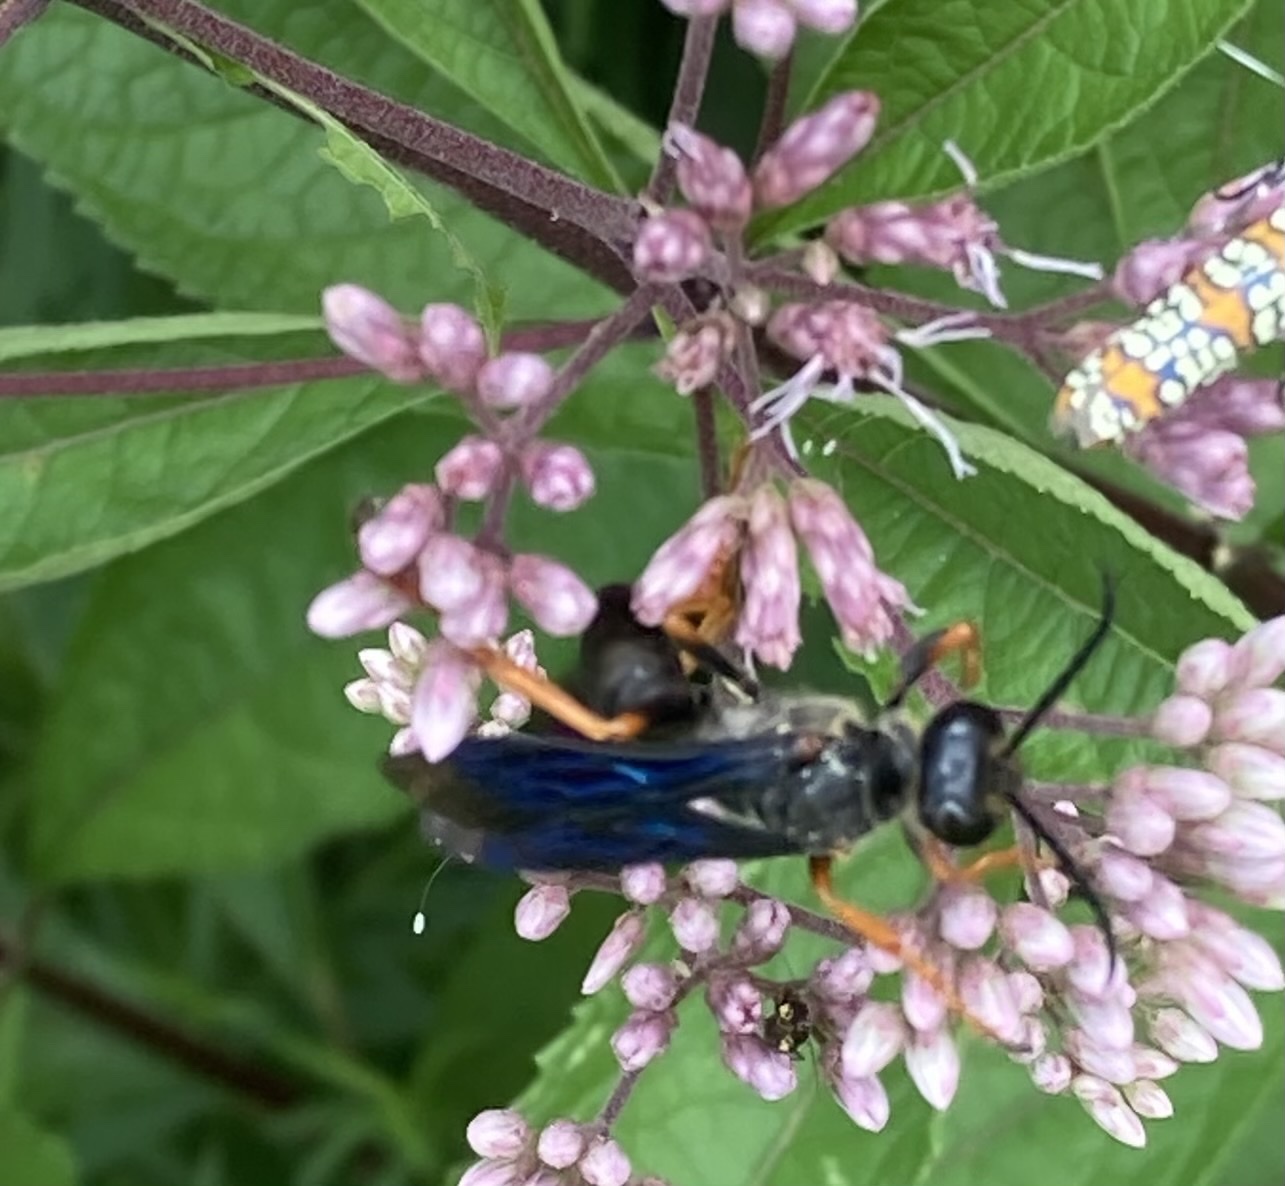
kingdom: Animalia
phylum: Arthropoda
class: Insecta
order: Hymenoptera
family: Sphecidae
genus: Sphex
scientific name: Sphex nudus
